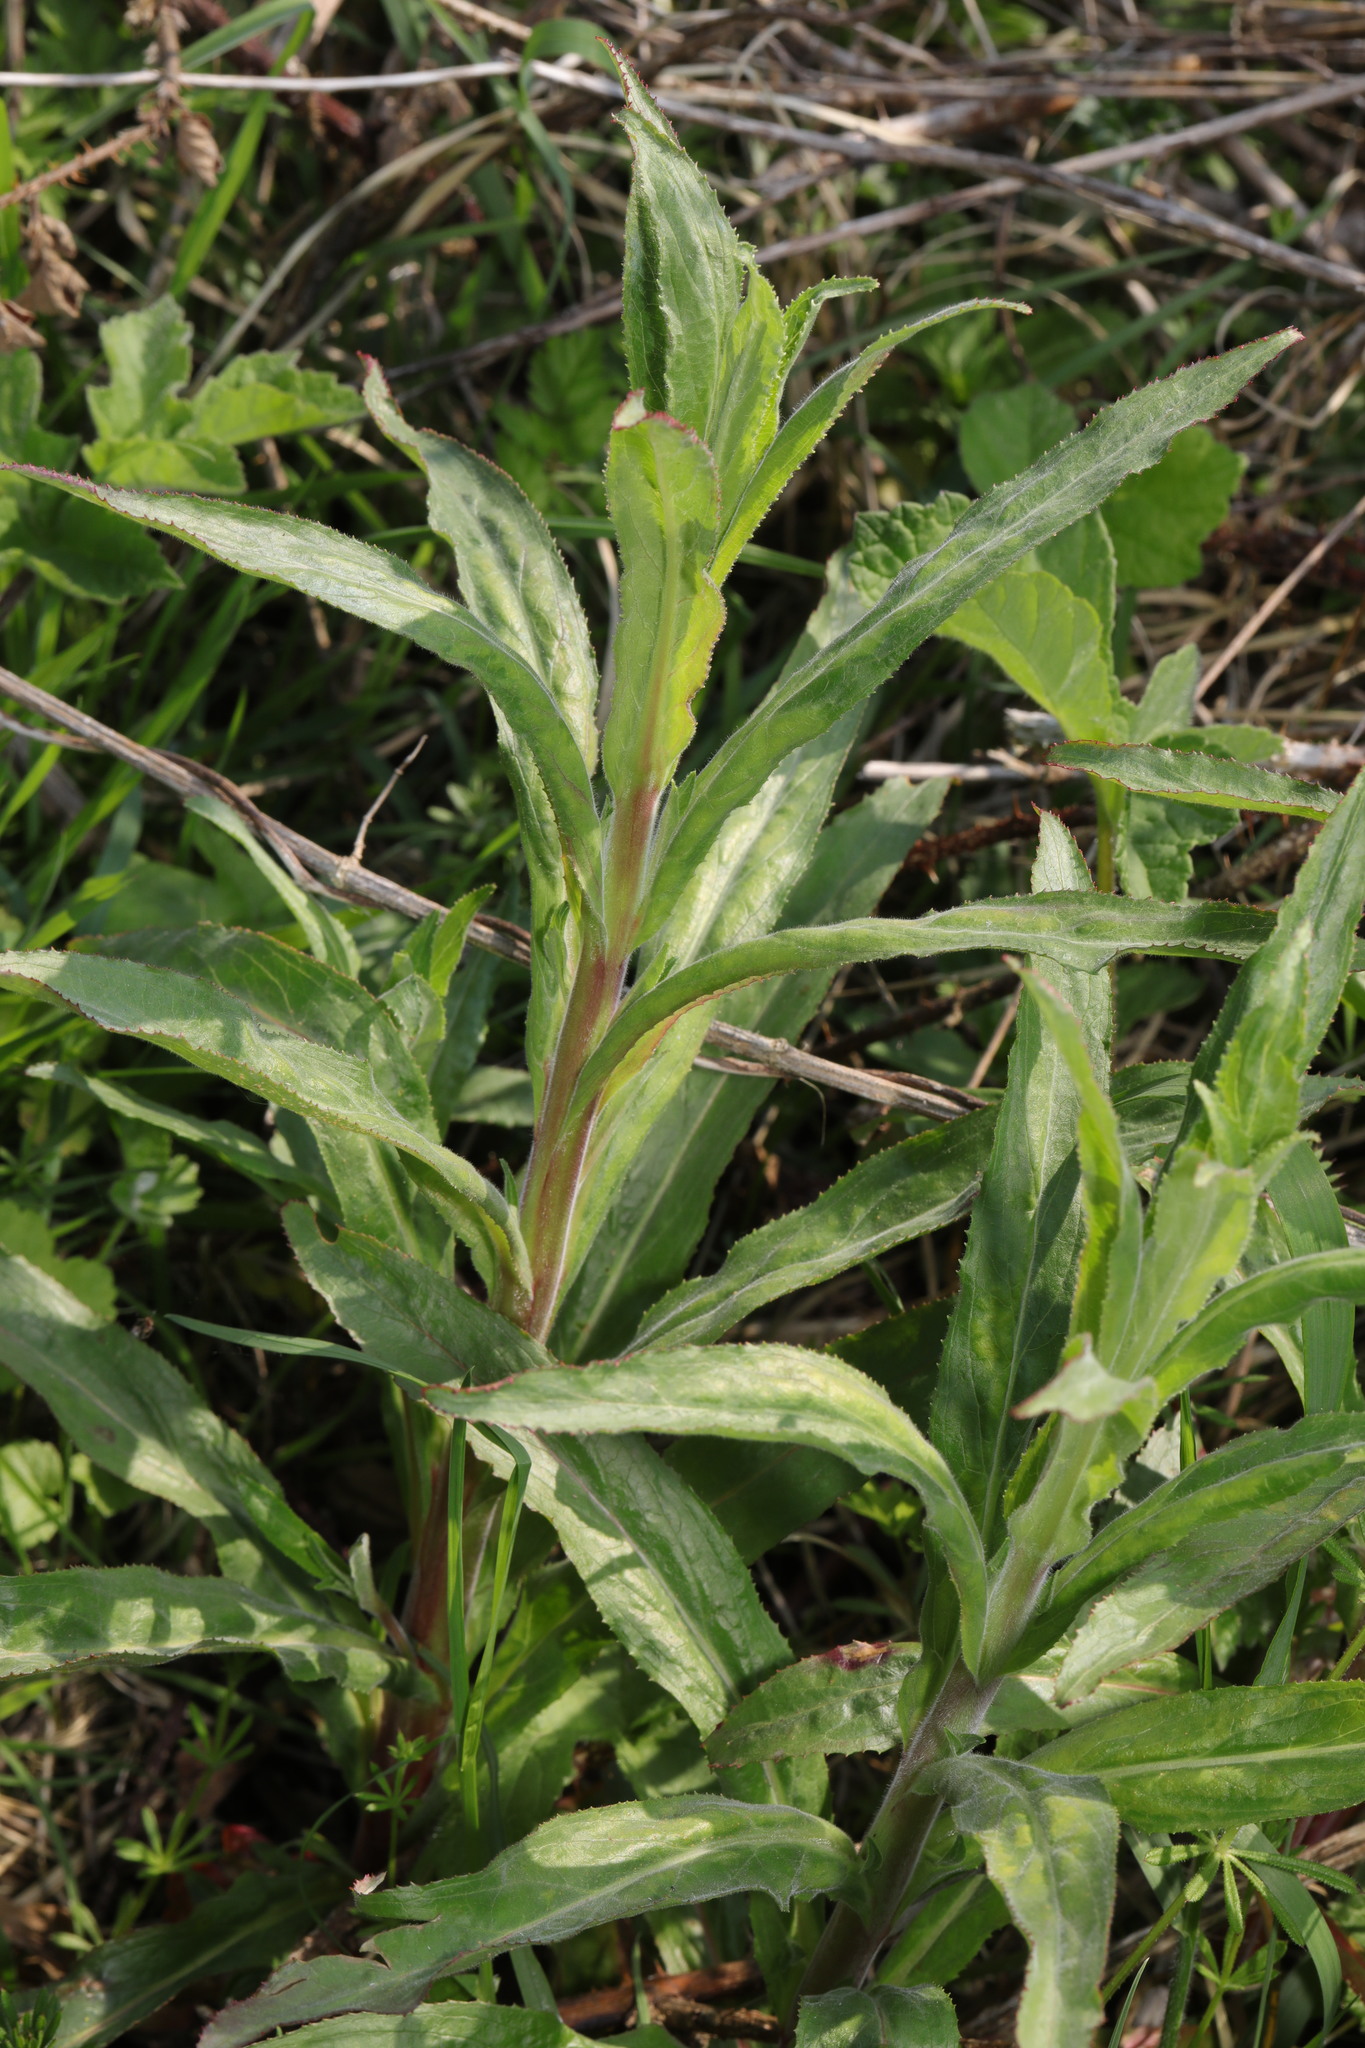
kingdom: Plantae
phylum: Tracheophyta
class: Magnoliopsida
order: Myrtales
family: Onagraceae
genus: Epilobium
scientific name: Epilobium hirsutum
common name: Great willowherb
